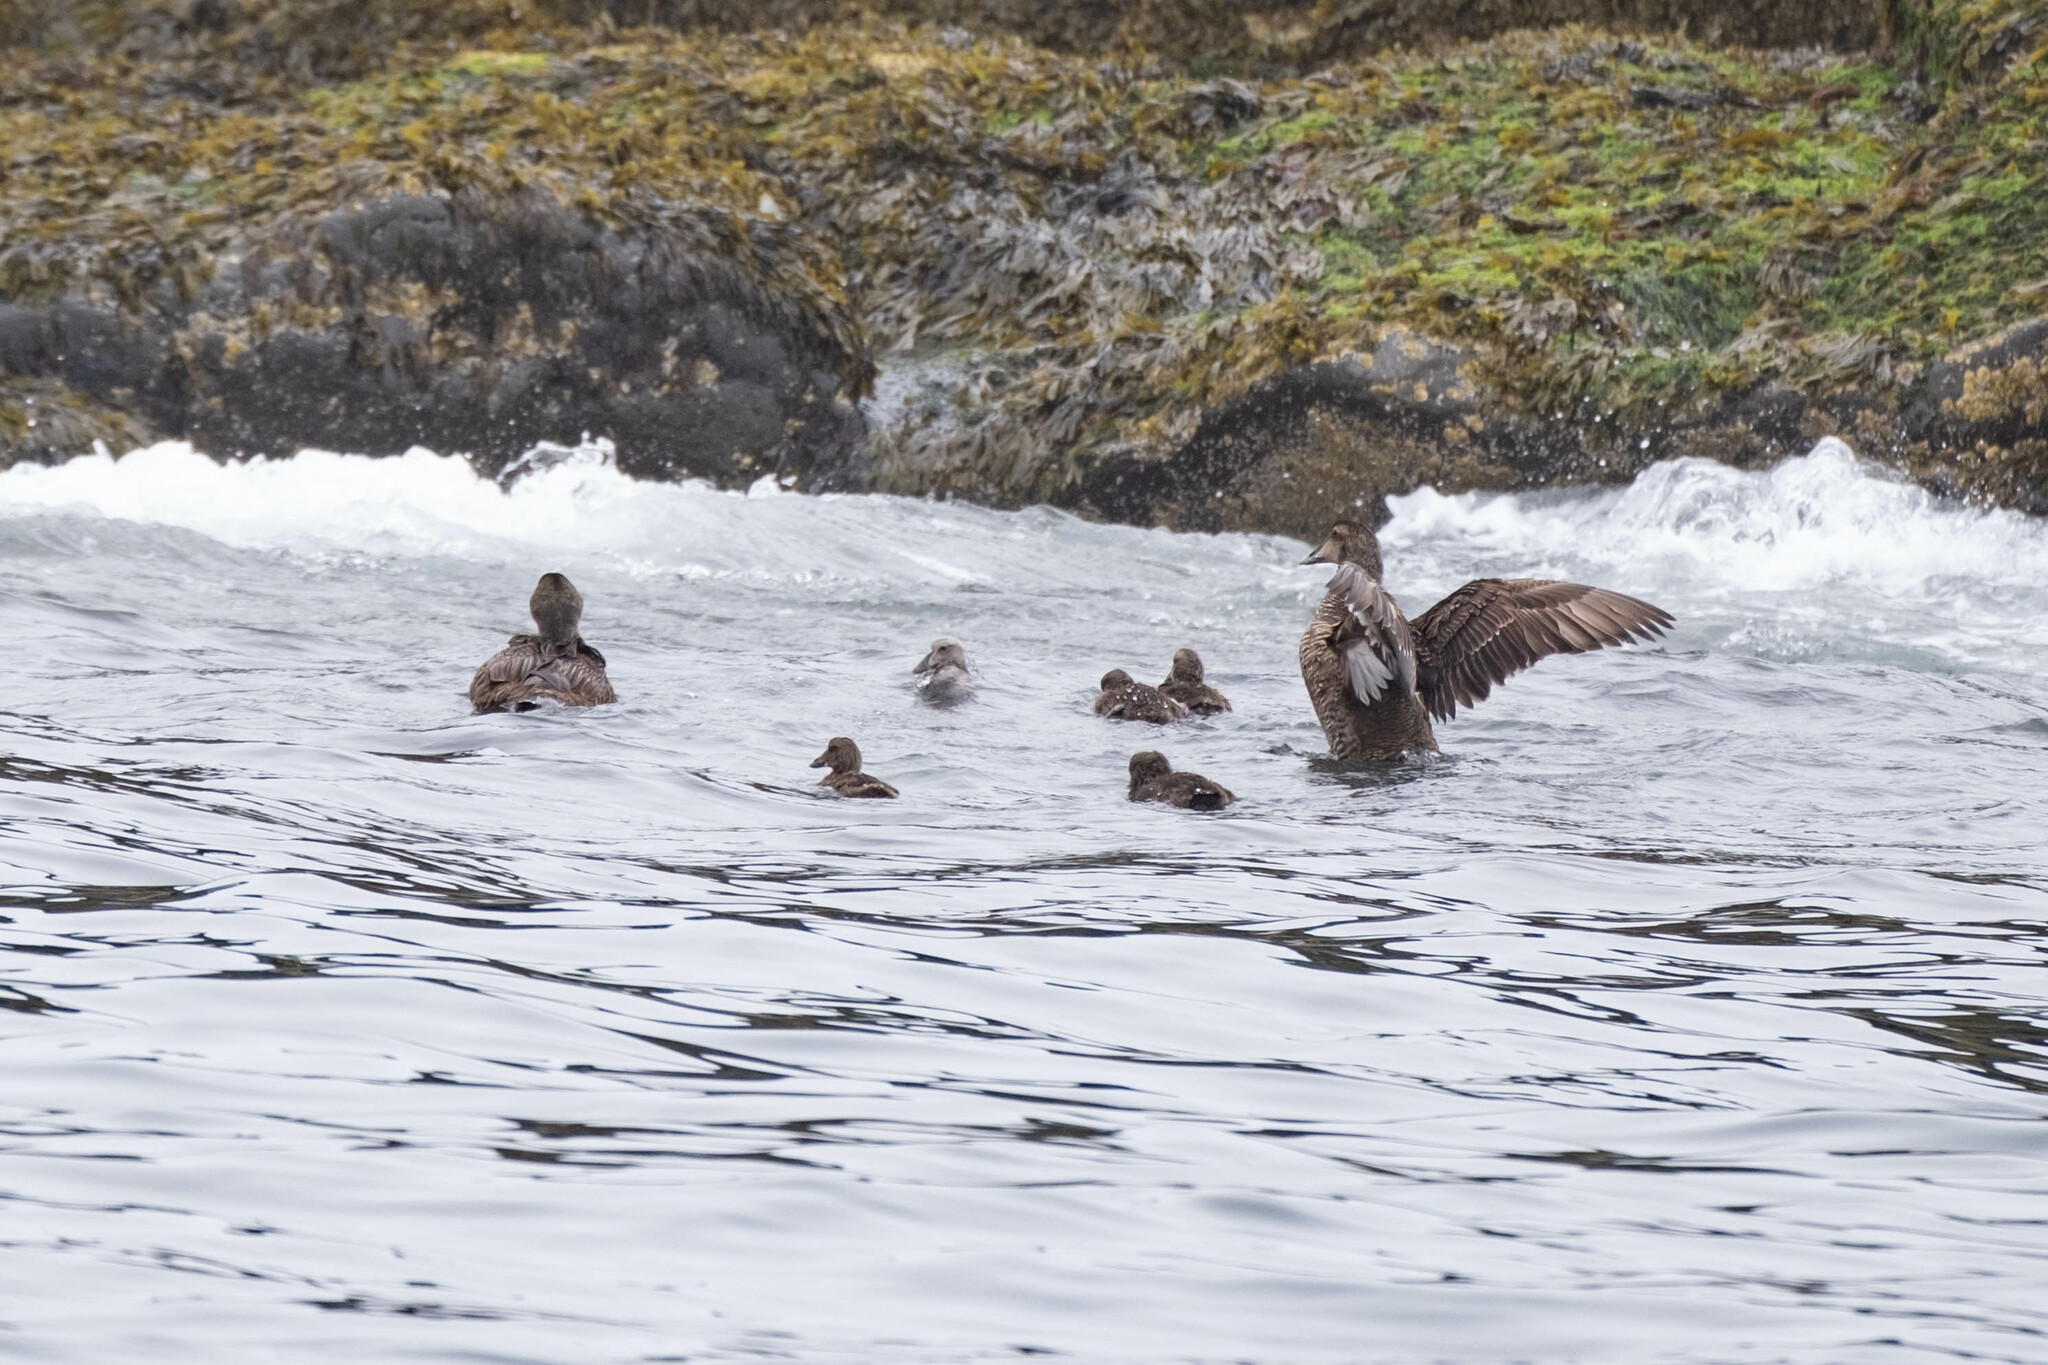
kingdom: Animalia
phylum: Chordata
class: Aves
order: Anseriformes
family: Anatidae
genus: Somateria
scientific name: Somateria mollissima
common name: Common eider
